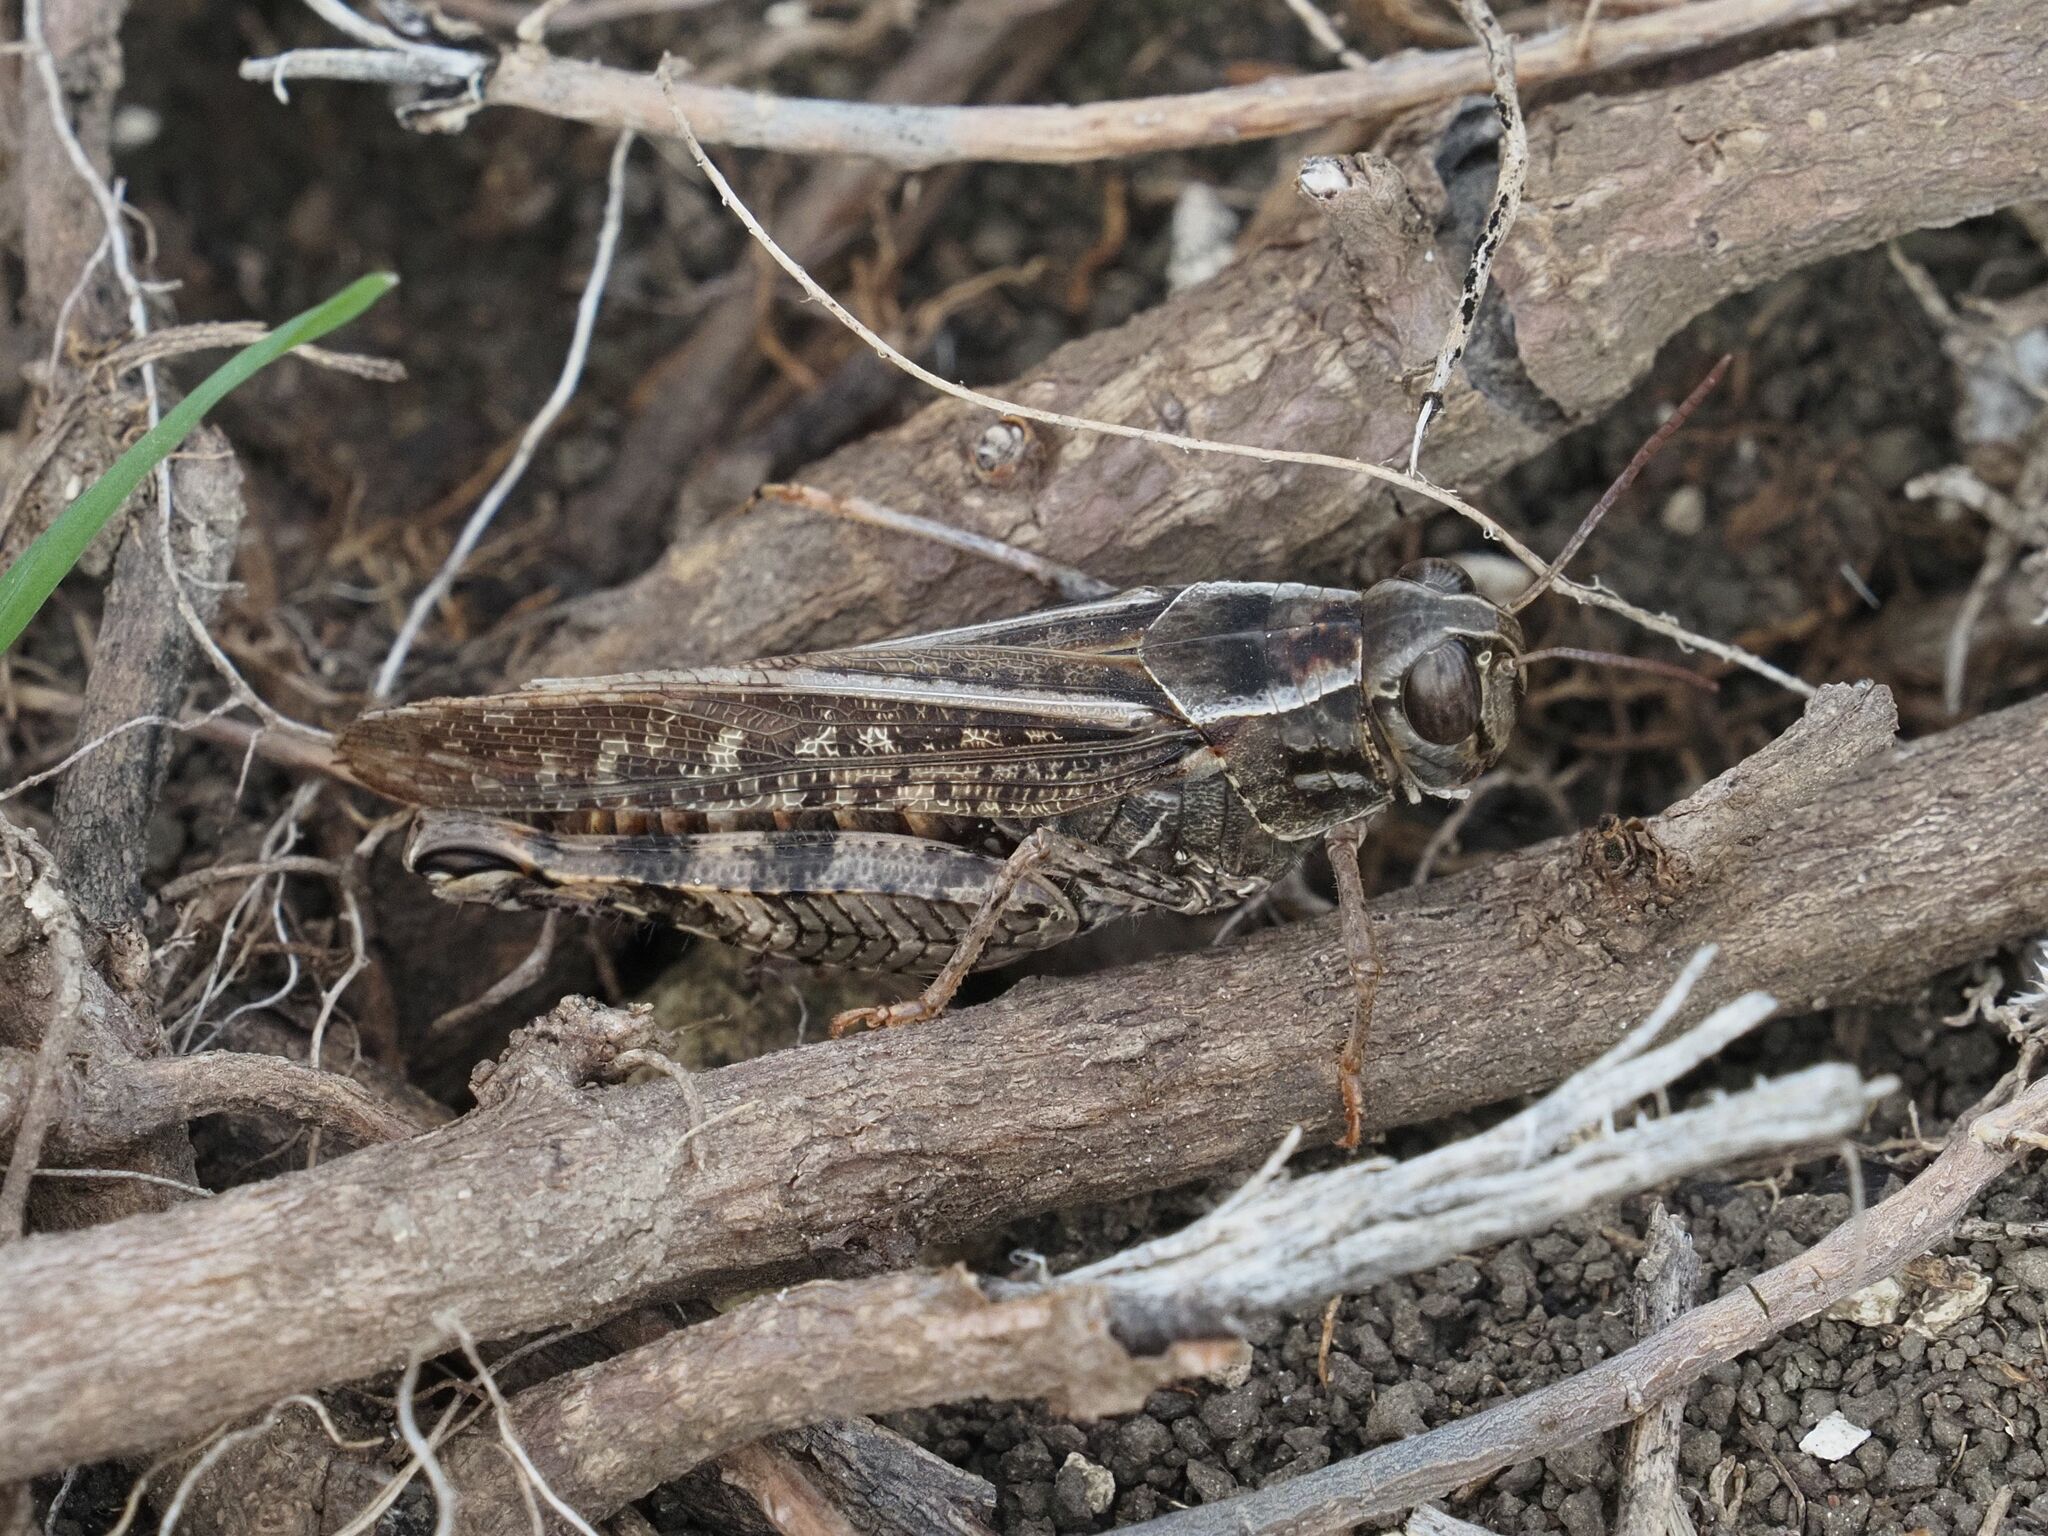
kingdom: Animalia
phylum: Arthropoda
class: Insecta
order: Orthoptera
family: Acrididae
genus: Calliptamus
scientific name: Calliptamus italicus
